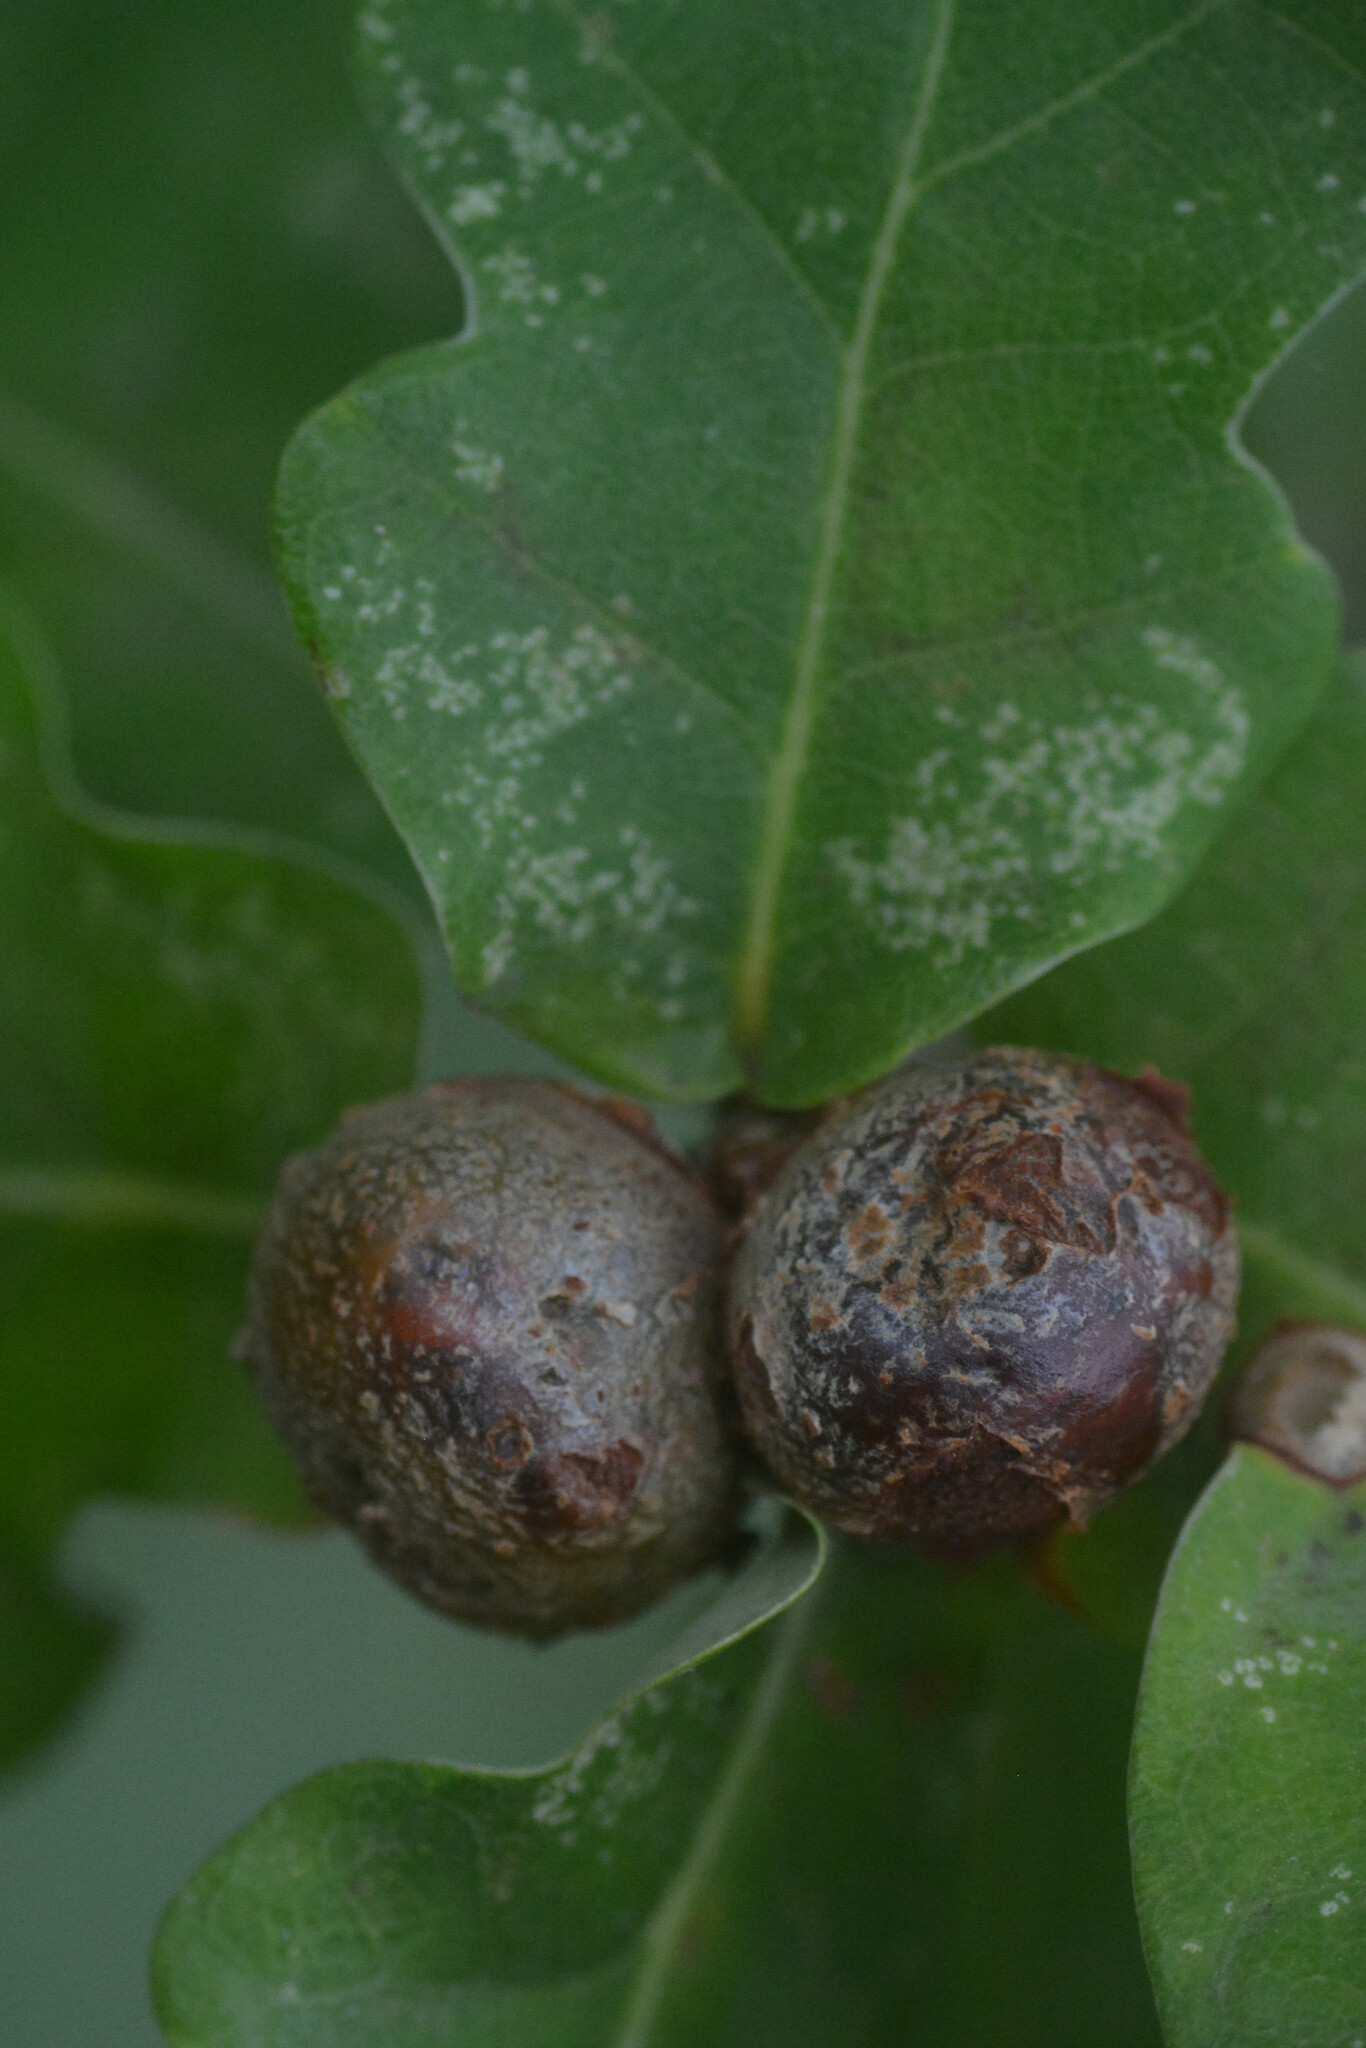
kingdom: Animalia
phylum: Arthropoda
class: Insecta
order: Hymenoptera
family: Cynipidae
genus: Andricus
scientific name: Andricus lignicolus
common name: Cola-nut gall
